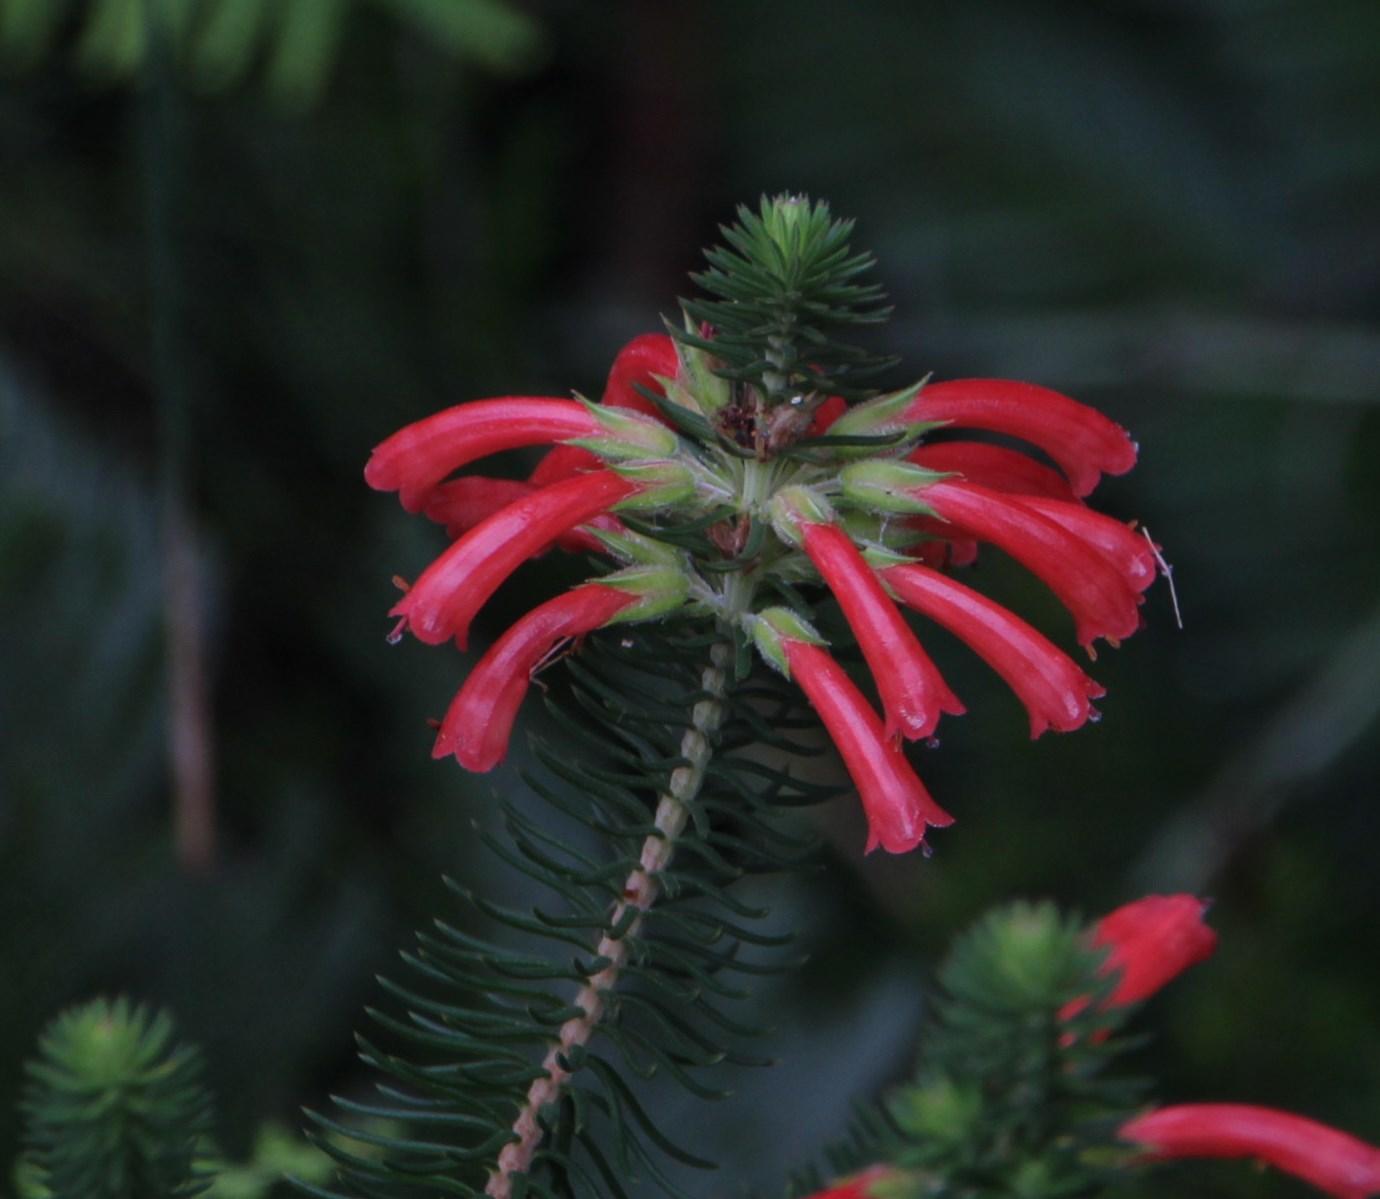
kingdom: Plantae
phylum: Tracheophyta
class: Magnoliopsida
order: Ericales
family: Ericaceae
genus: Erica
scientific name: Erica abietina
